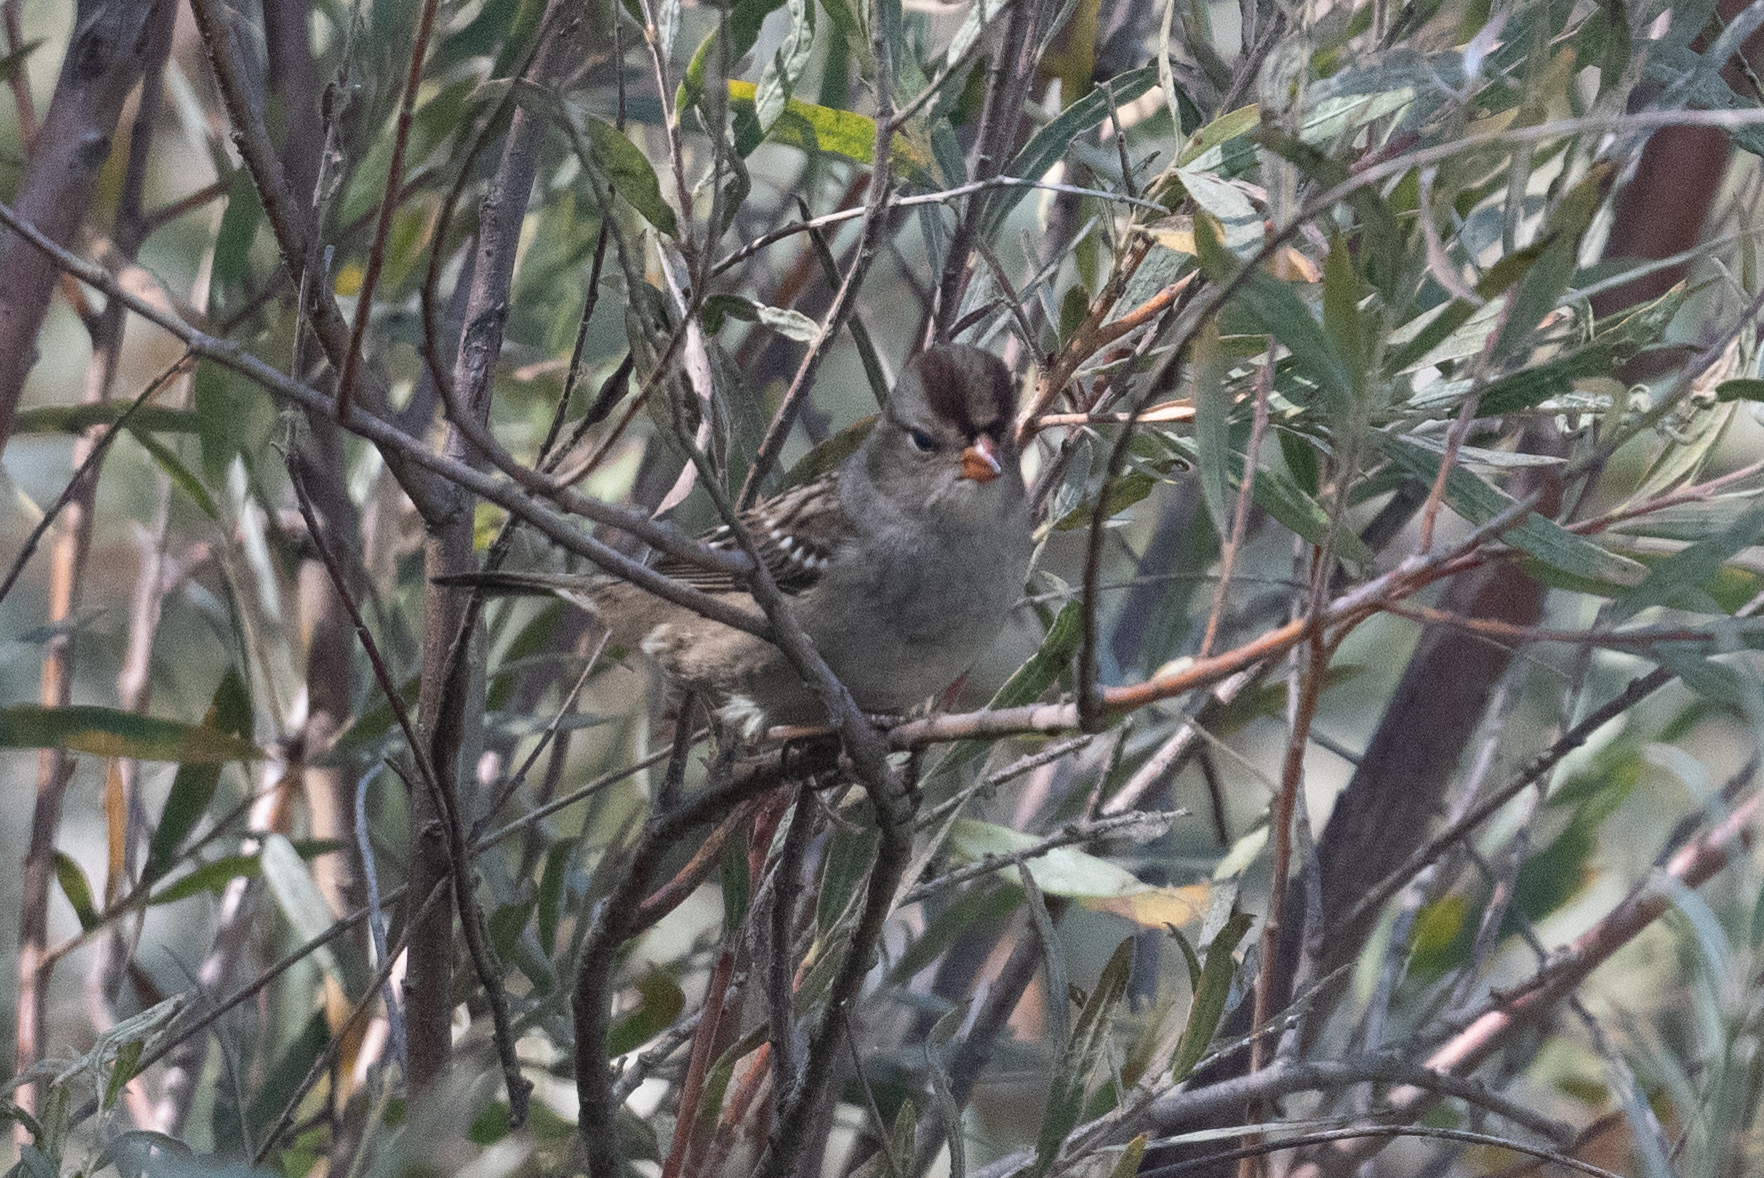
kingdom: Animalia
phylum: Chordata
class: Aves
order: Passeriformes
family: Passerellidae
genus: Zonotrichia
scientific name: Zonotrichia leucophrys
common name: White-crowned sparrow
